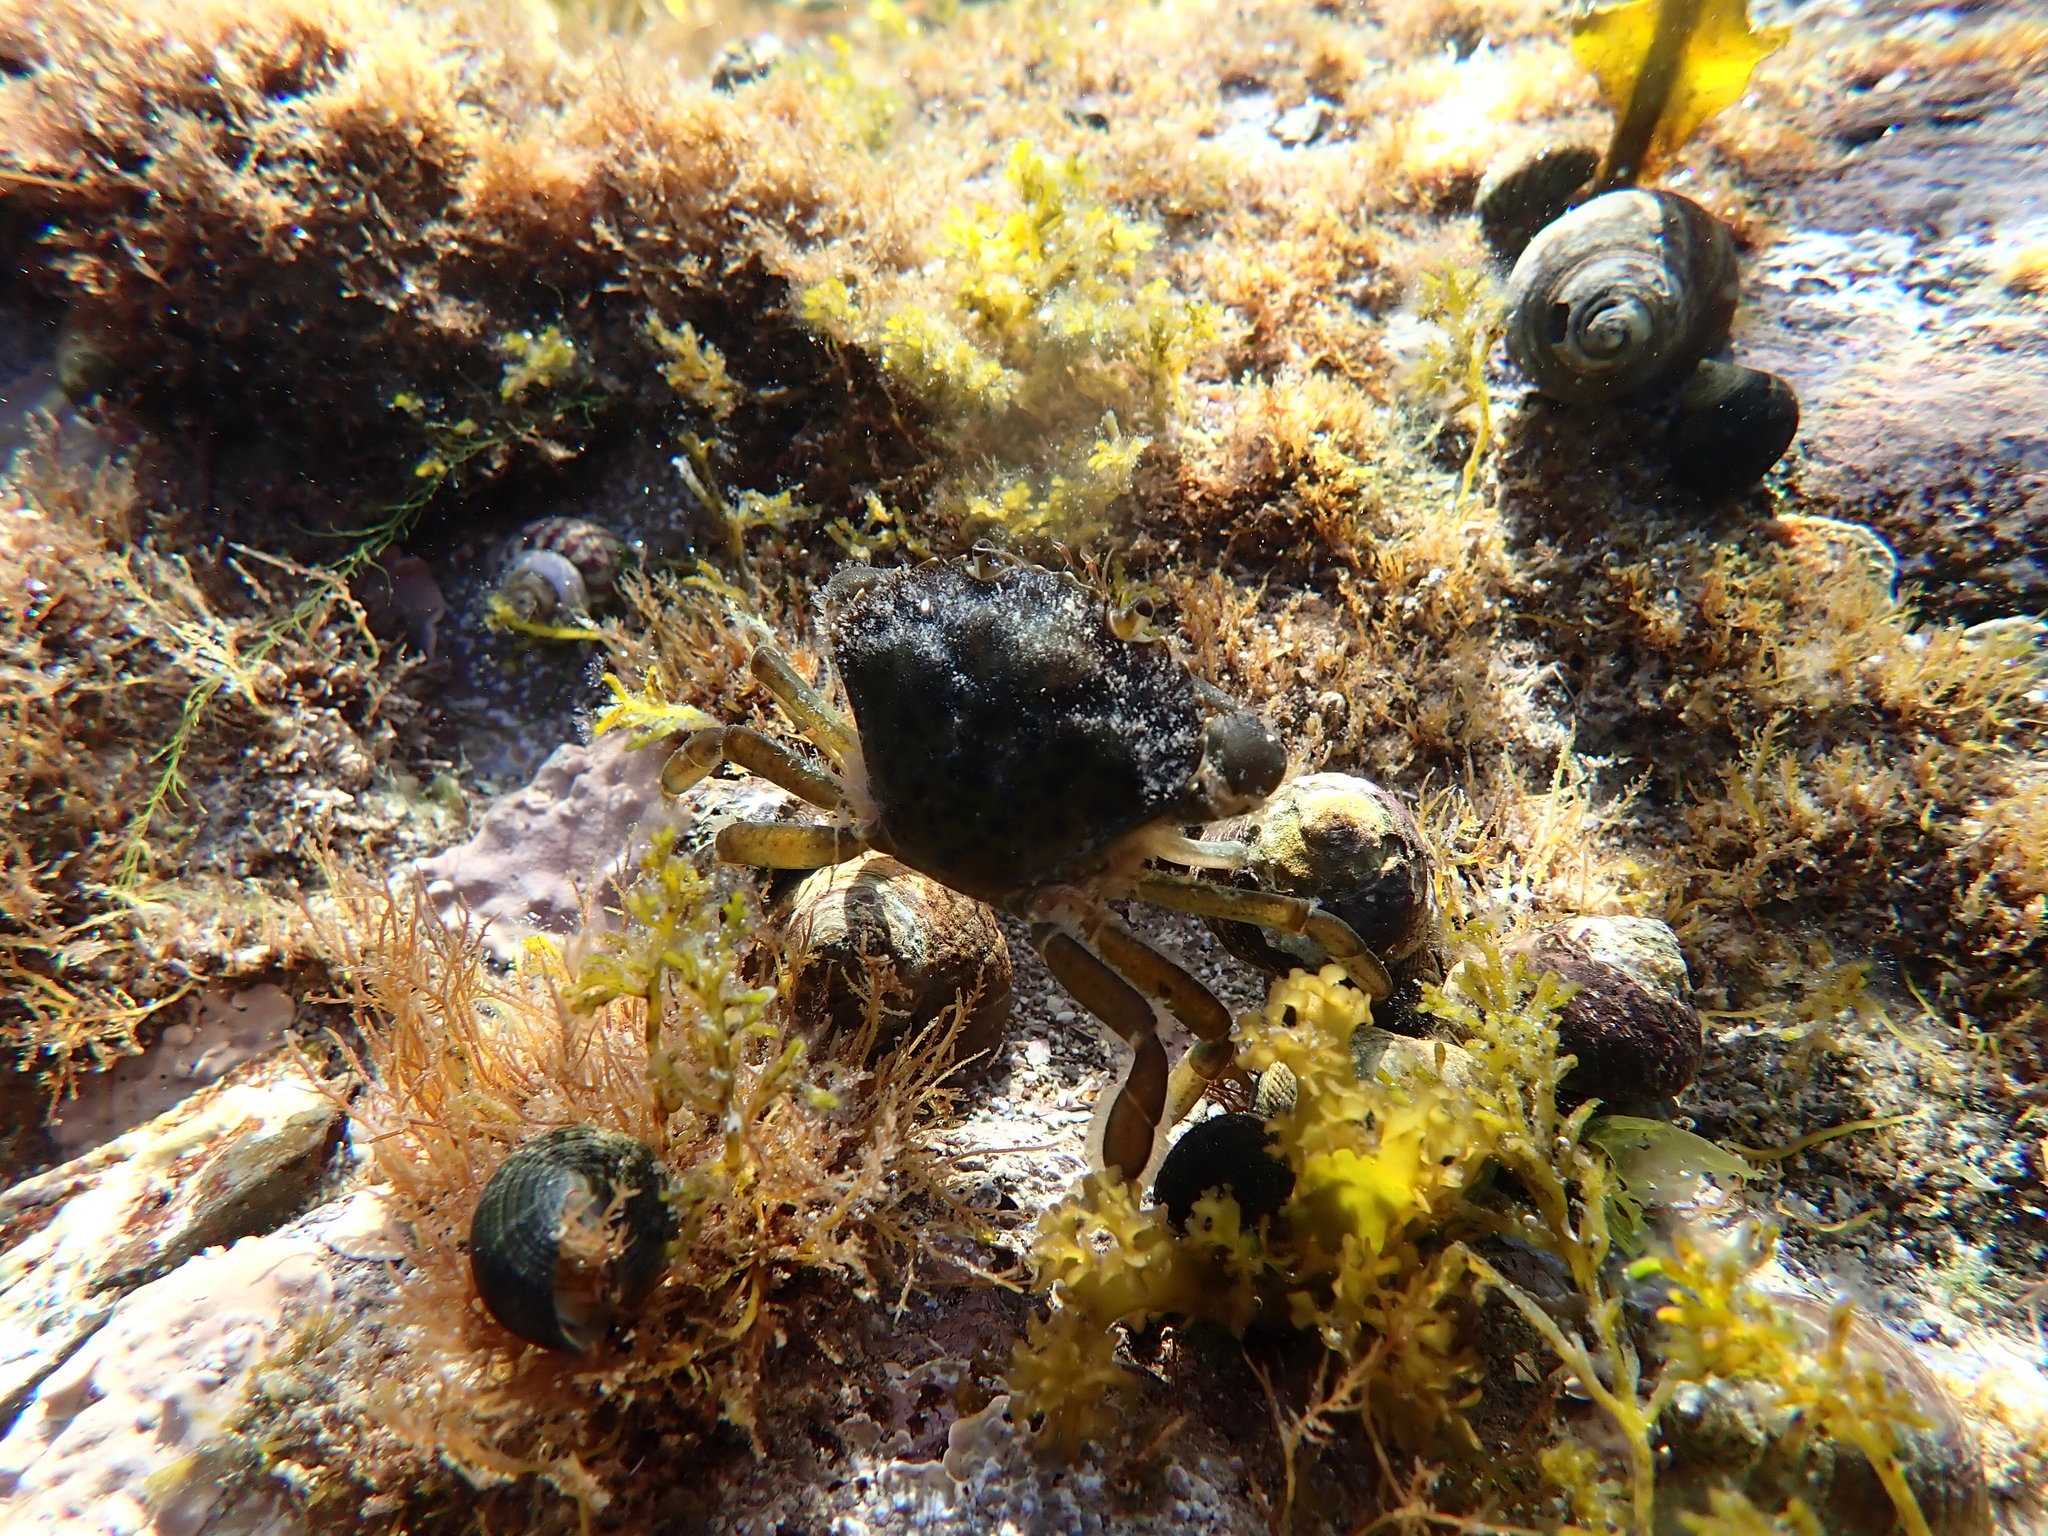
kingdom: Animalia
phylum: Arthropoda
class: Malacostraca
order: Decapoda
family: Carcinidae
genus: Carcinus
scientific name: Carcinus maenas
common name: European green crab
